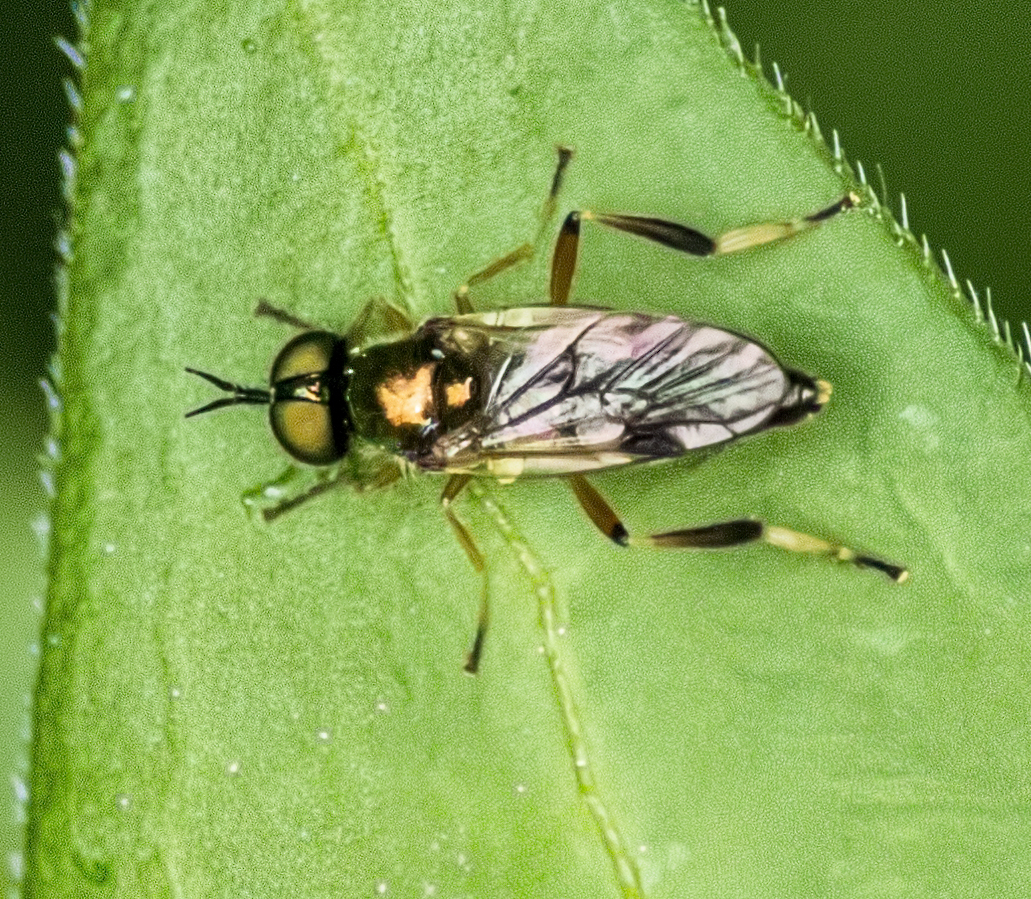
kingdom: Animalia
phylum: Arthropoda
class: Insecta
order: Diptera
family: Stratiomyidae
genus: Actina
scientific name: Actina viridis
